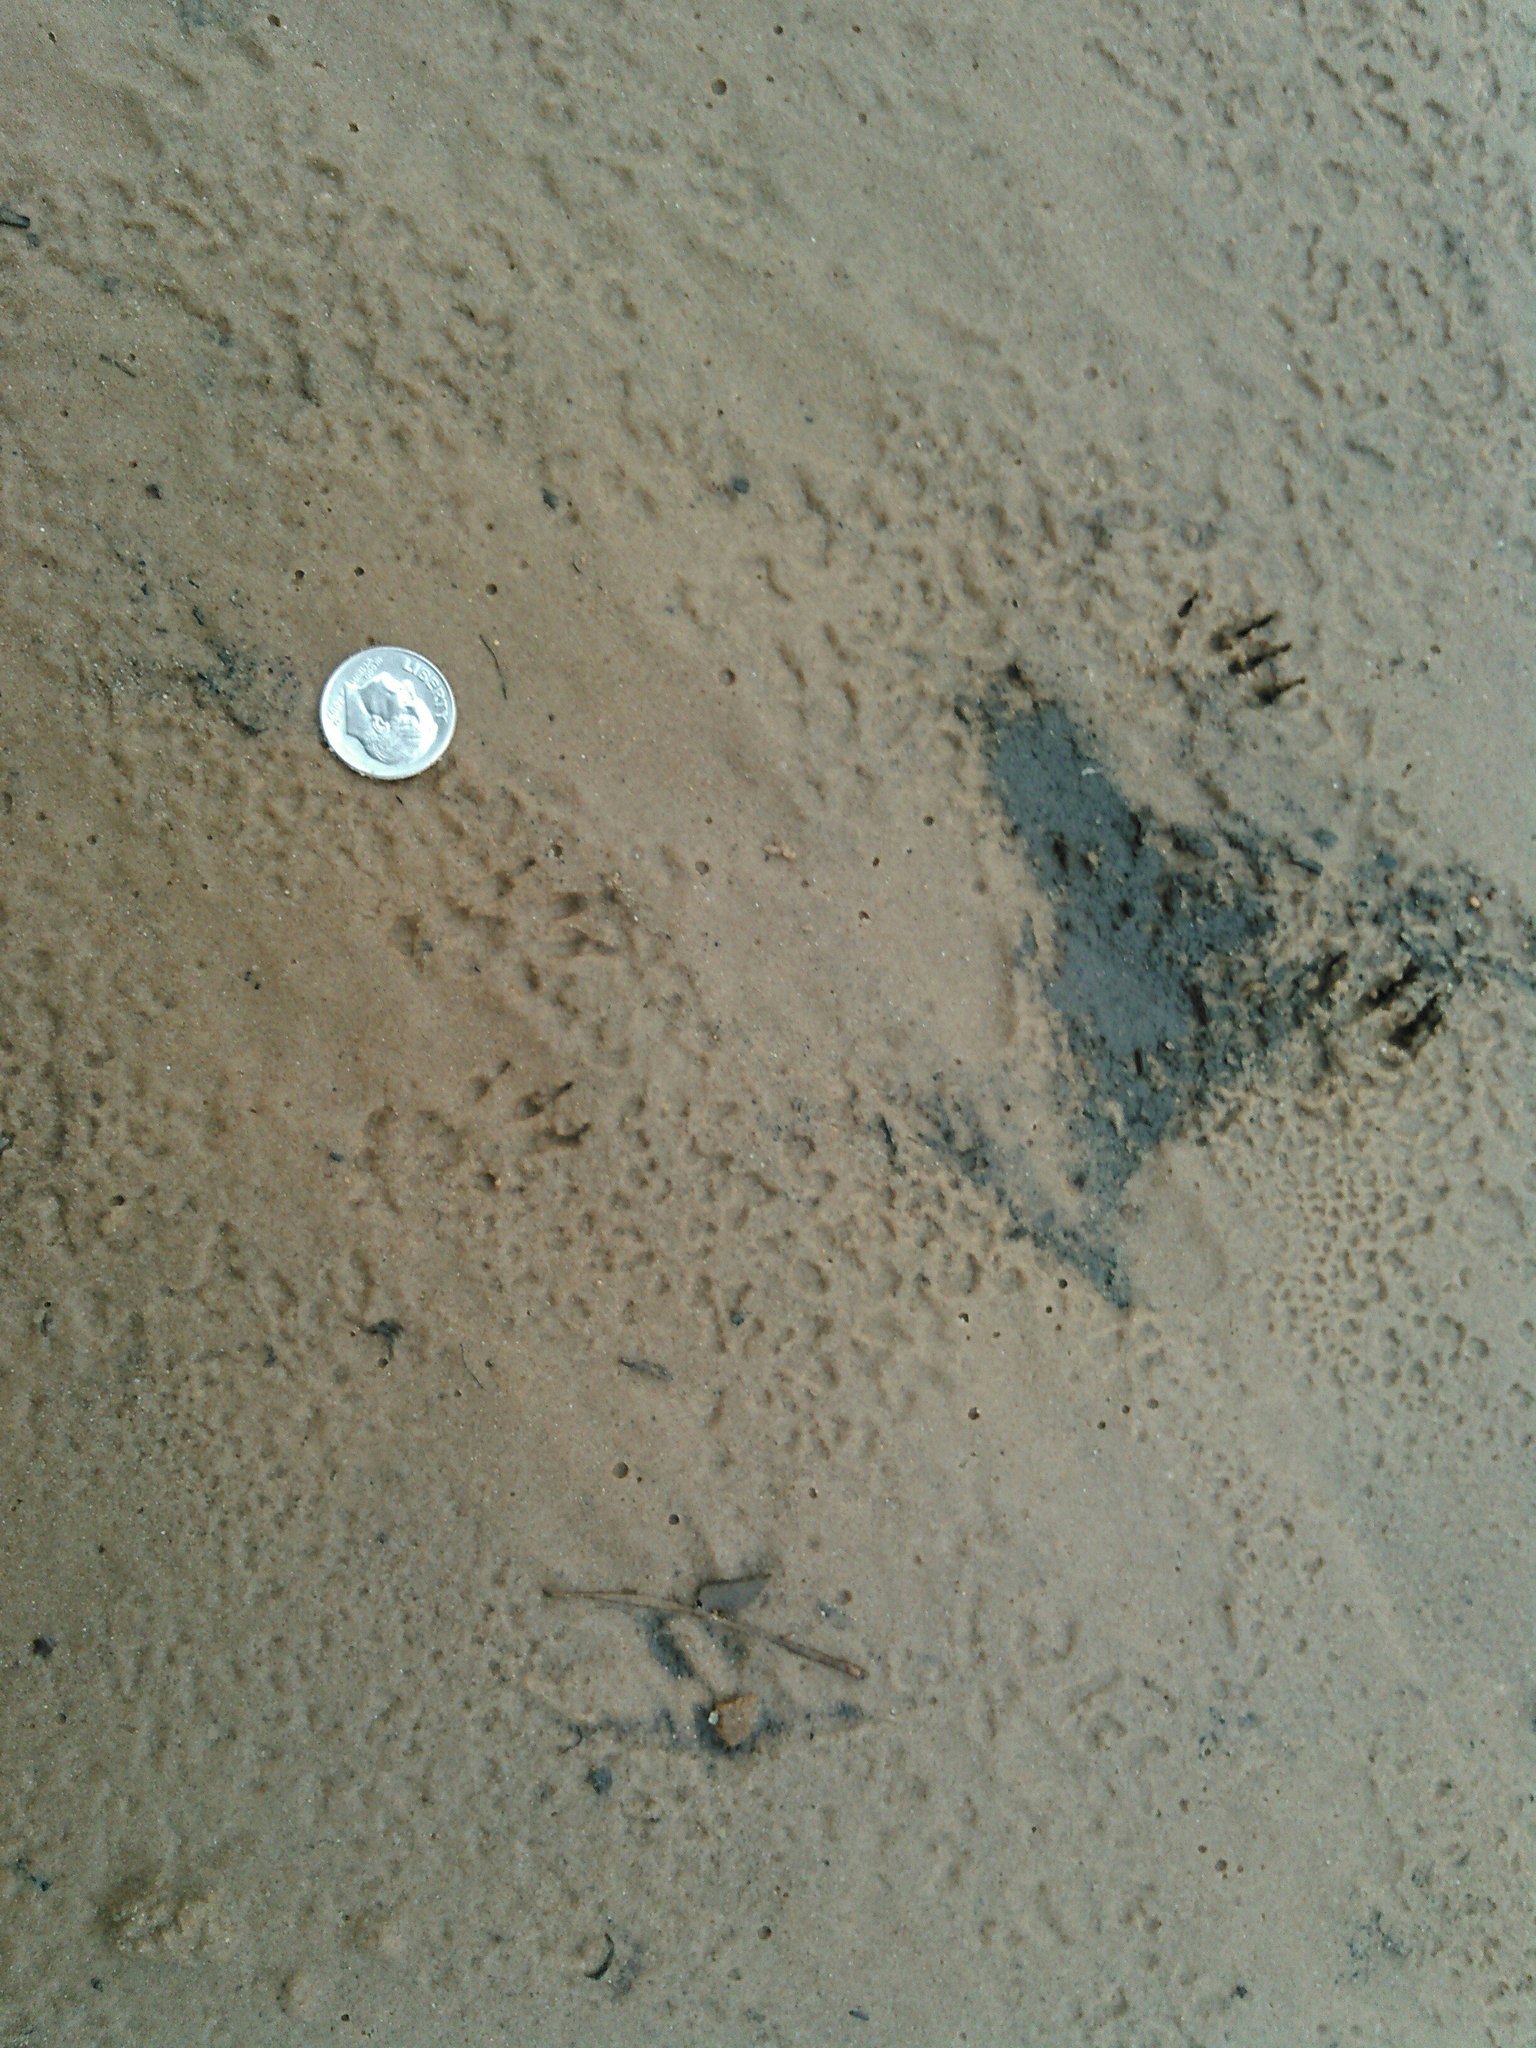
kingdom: Animalia
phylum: Chordata
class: Mammalia
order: Rodentia
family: Sciuridae
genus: Tamiasciurus
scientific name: Tamiasciurus hudsonicus
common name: Red squirrel
